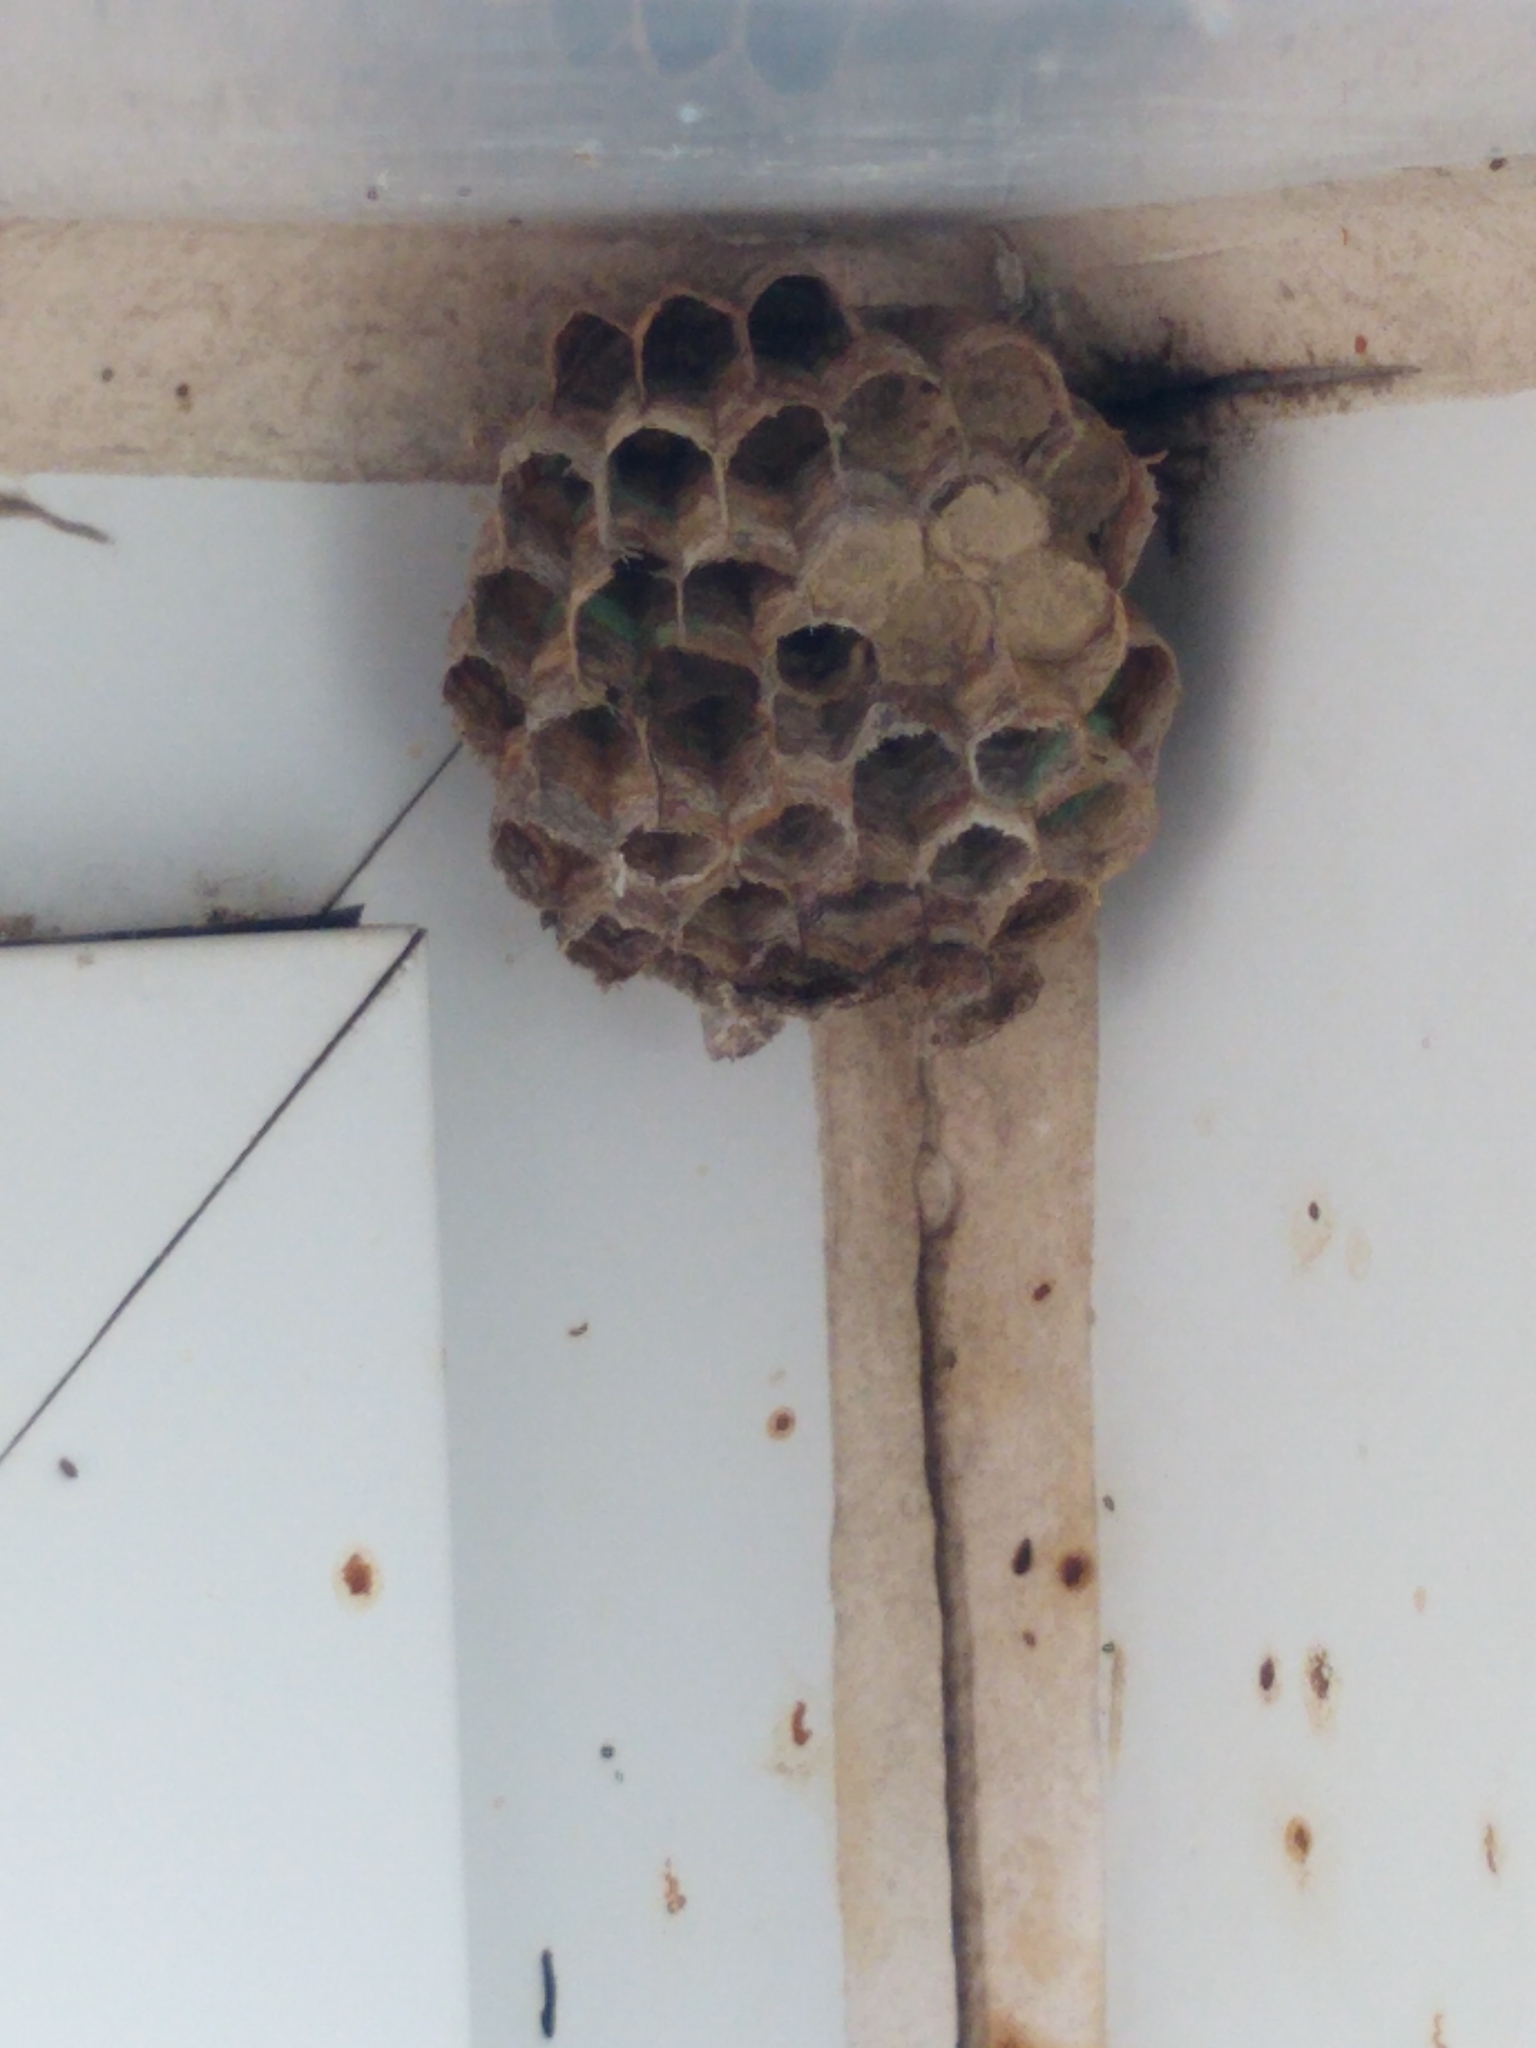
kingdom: Animalia
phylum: Arthropoda
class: Insecta
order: Hymenoptera
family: Eumenidae
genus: Polistes
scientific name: Polistes
